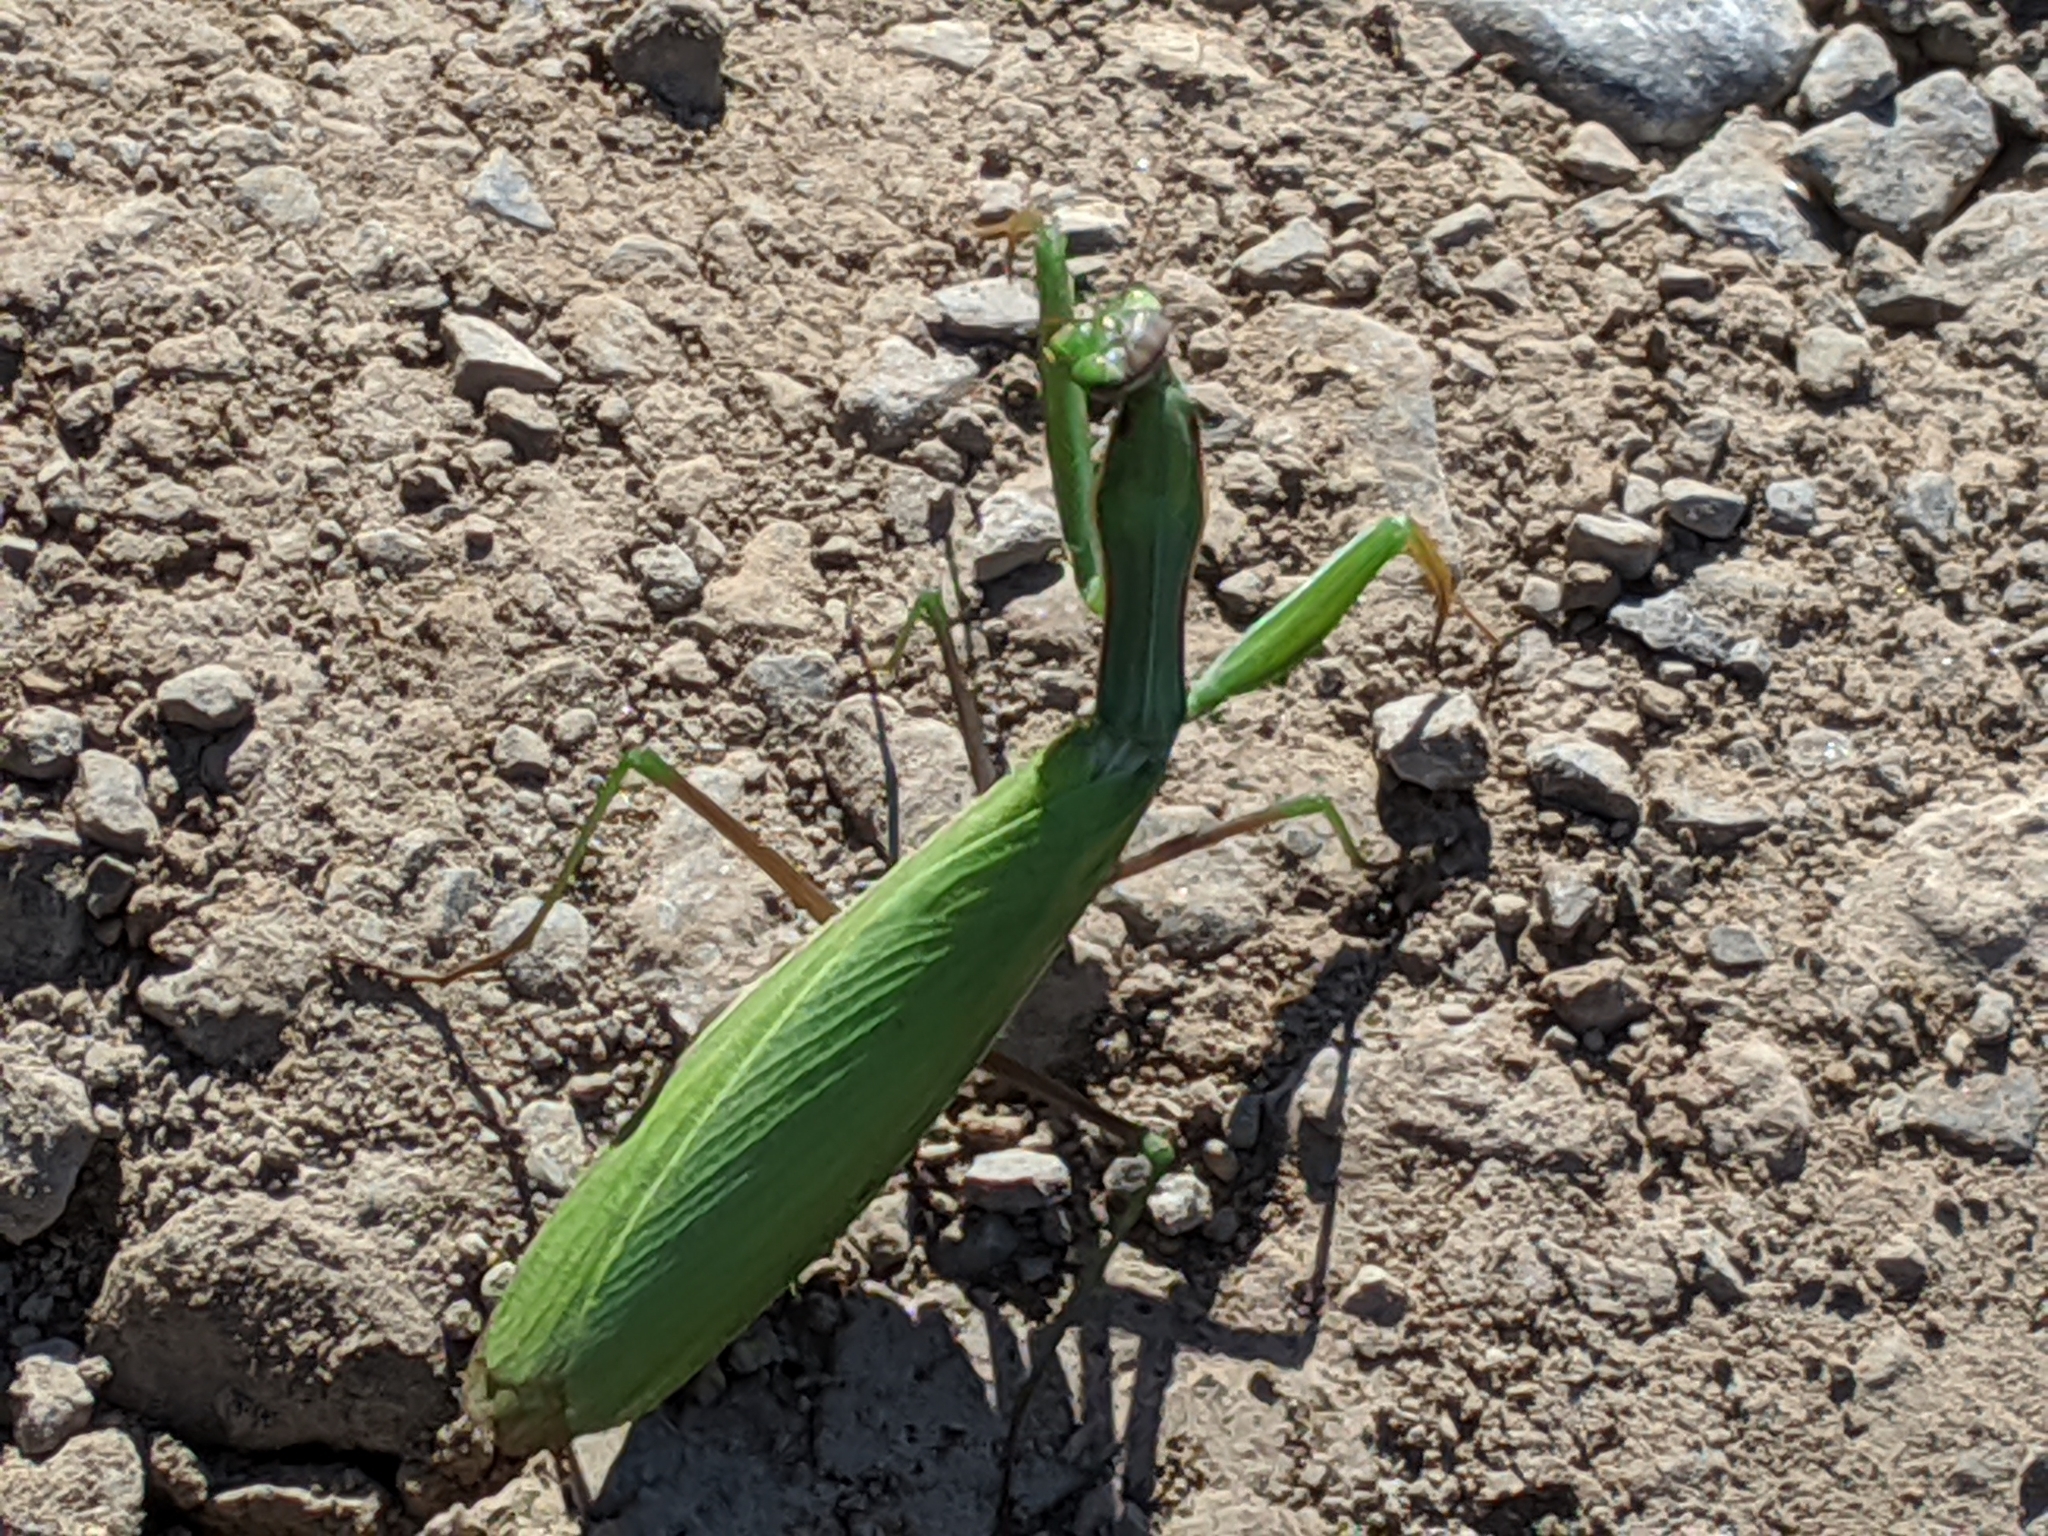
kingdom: Animalia
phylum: Arthropoda
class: Insecta
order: Mantodea
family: Mantidae
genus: Mantis
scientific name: Mantis religiosa
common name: Praying mantis
